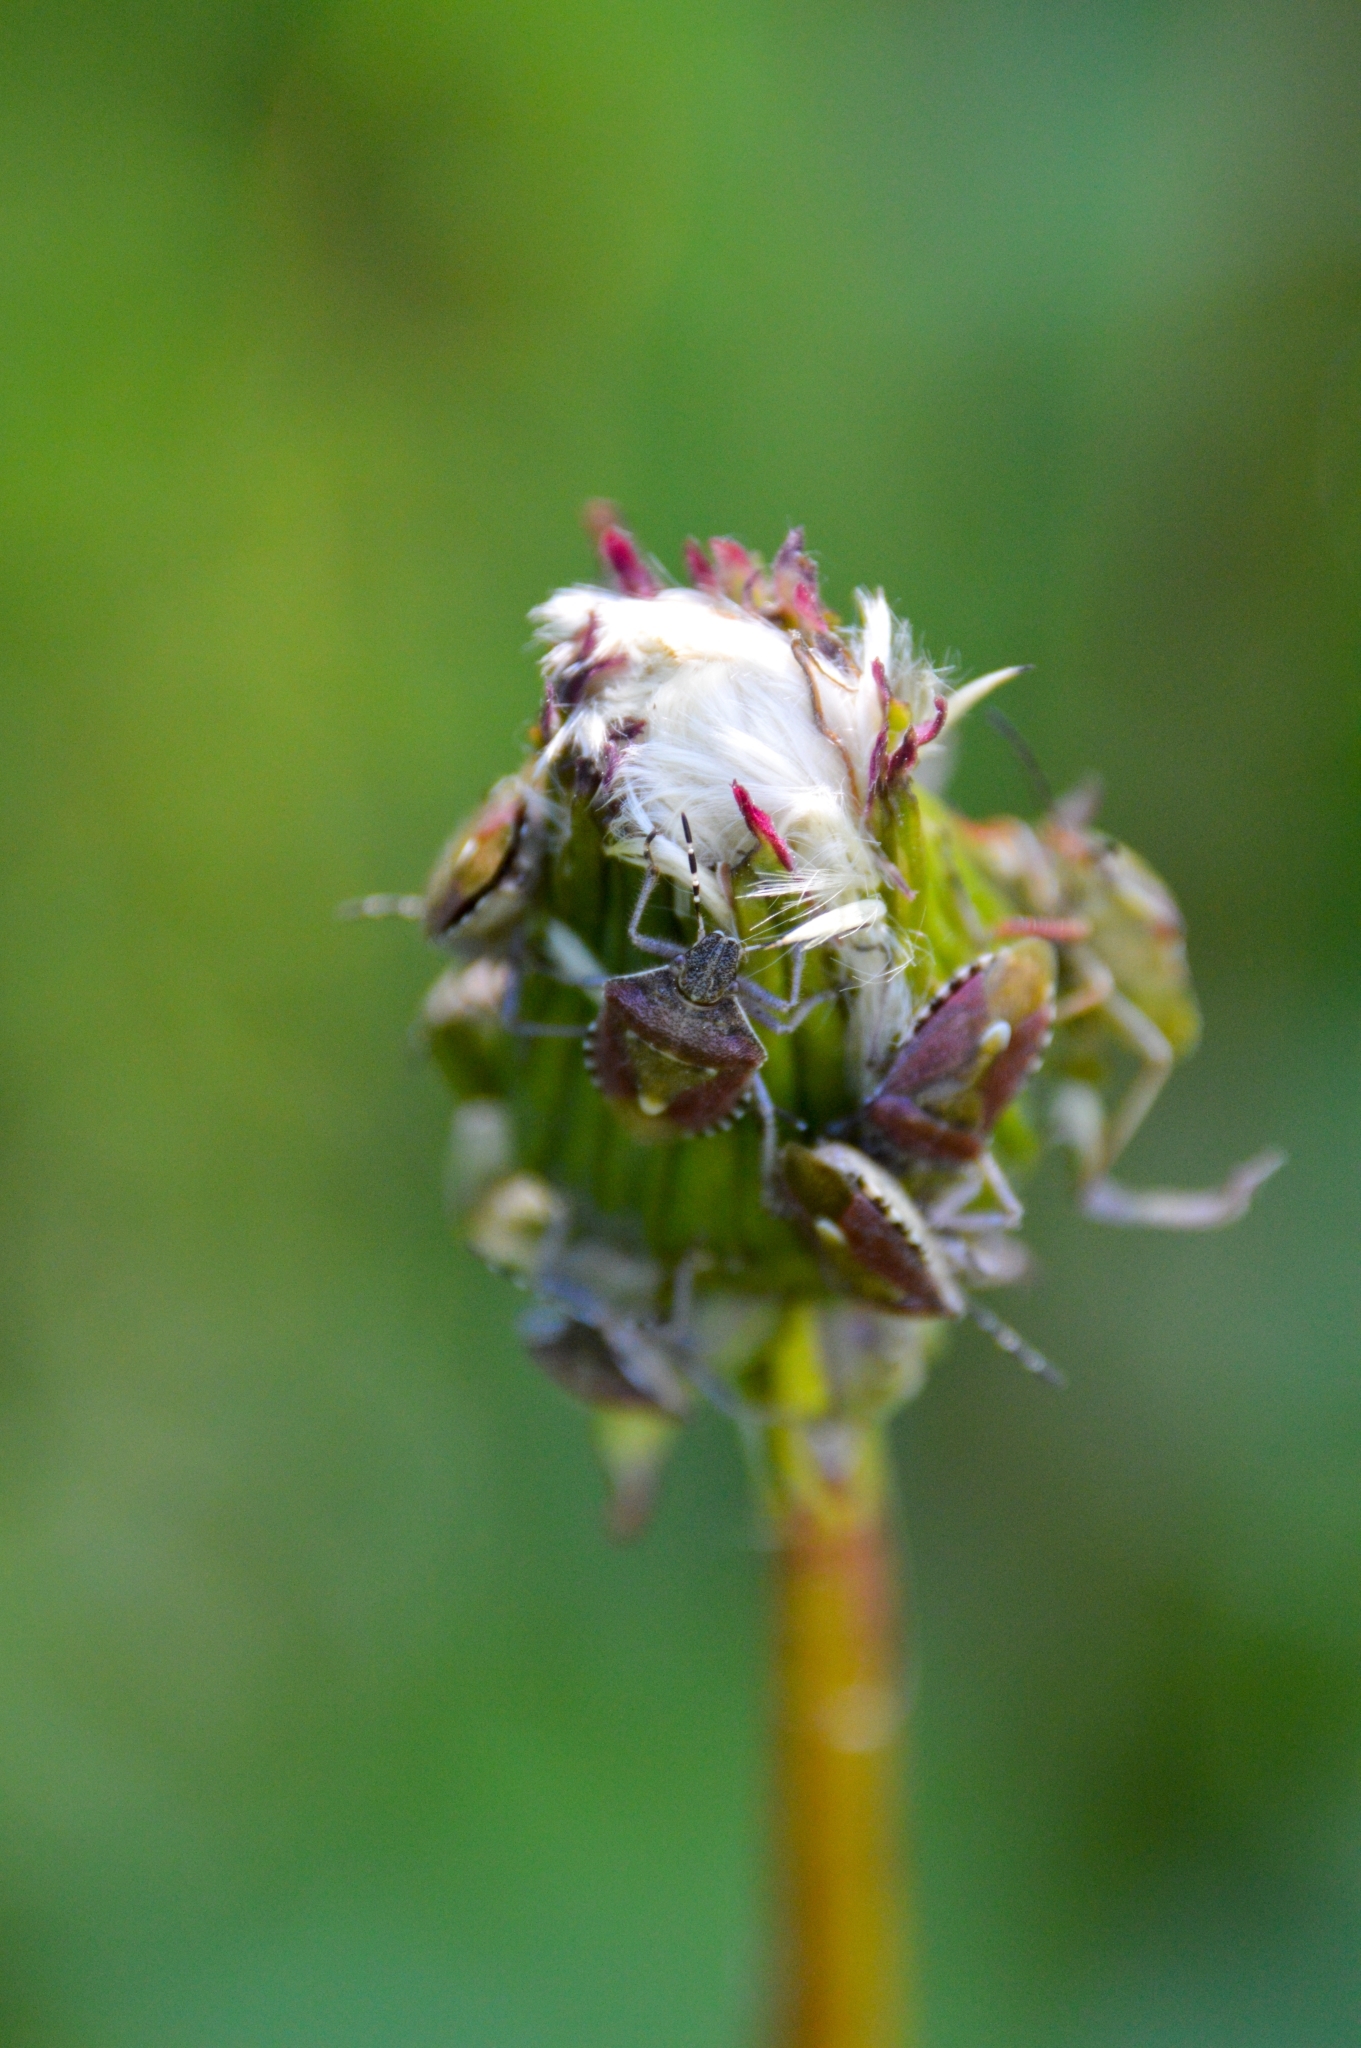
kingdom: Animalia
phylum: Arthropoda
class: Insecta
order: Hemiptera
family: Pentatomidae
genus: Dolycoris
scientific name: Dolycoris baccarum
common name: Sloe bug
